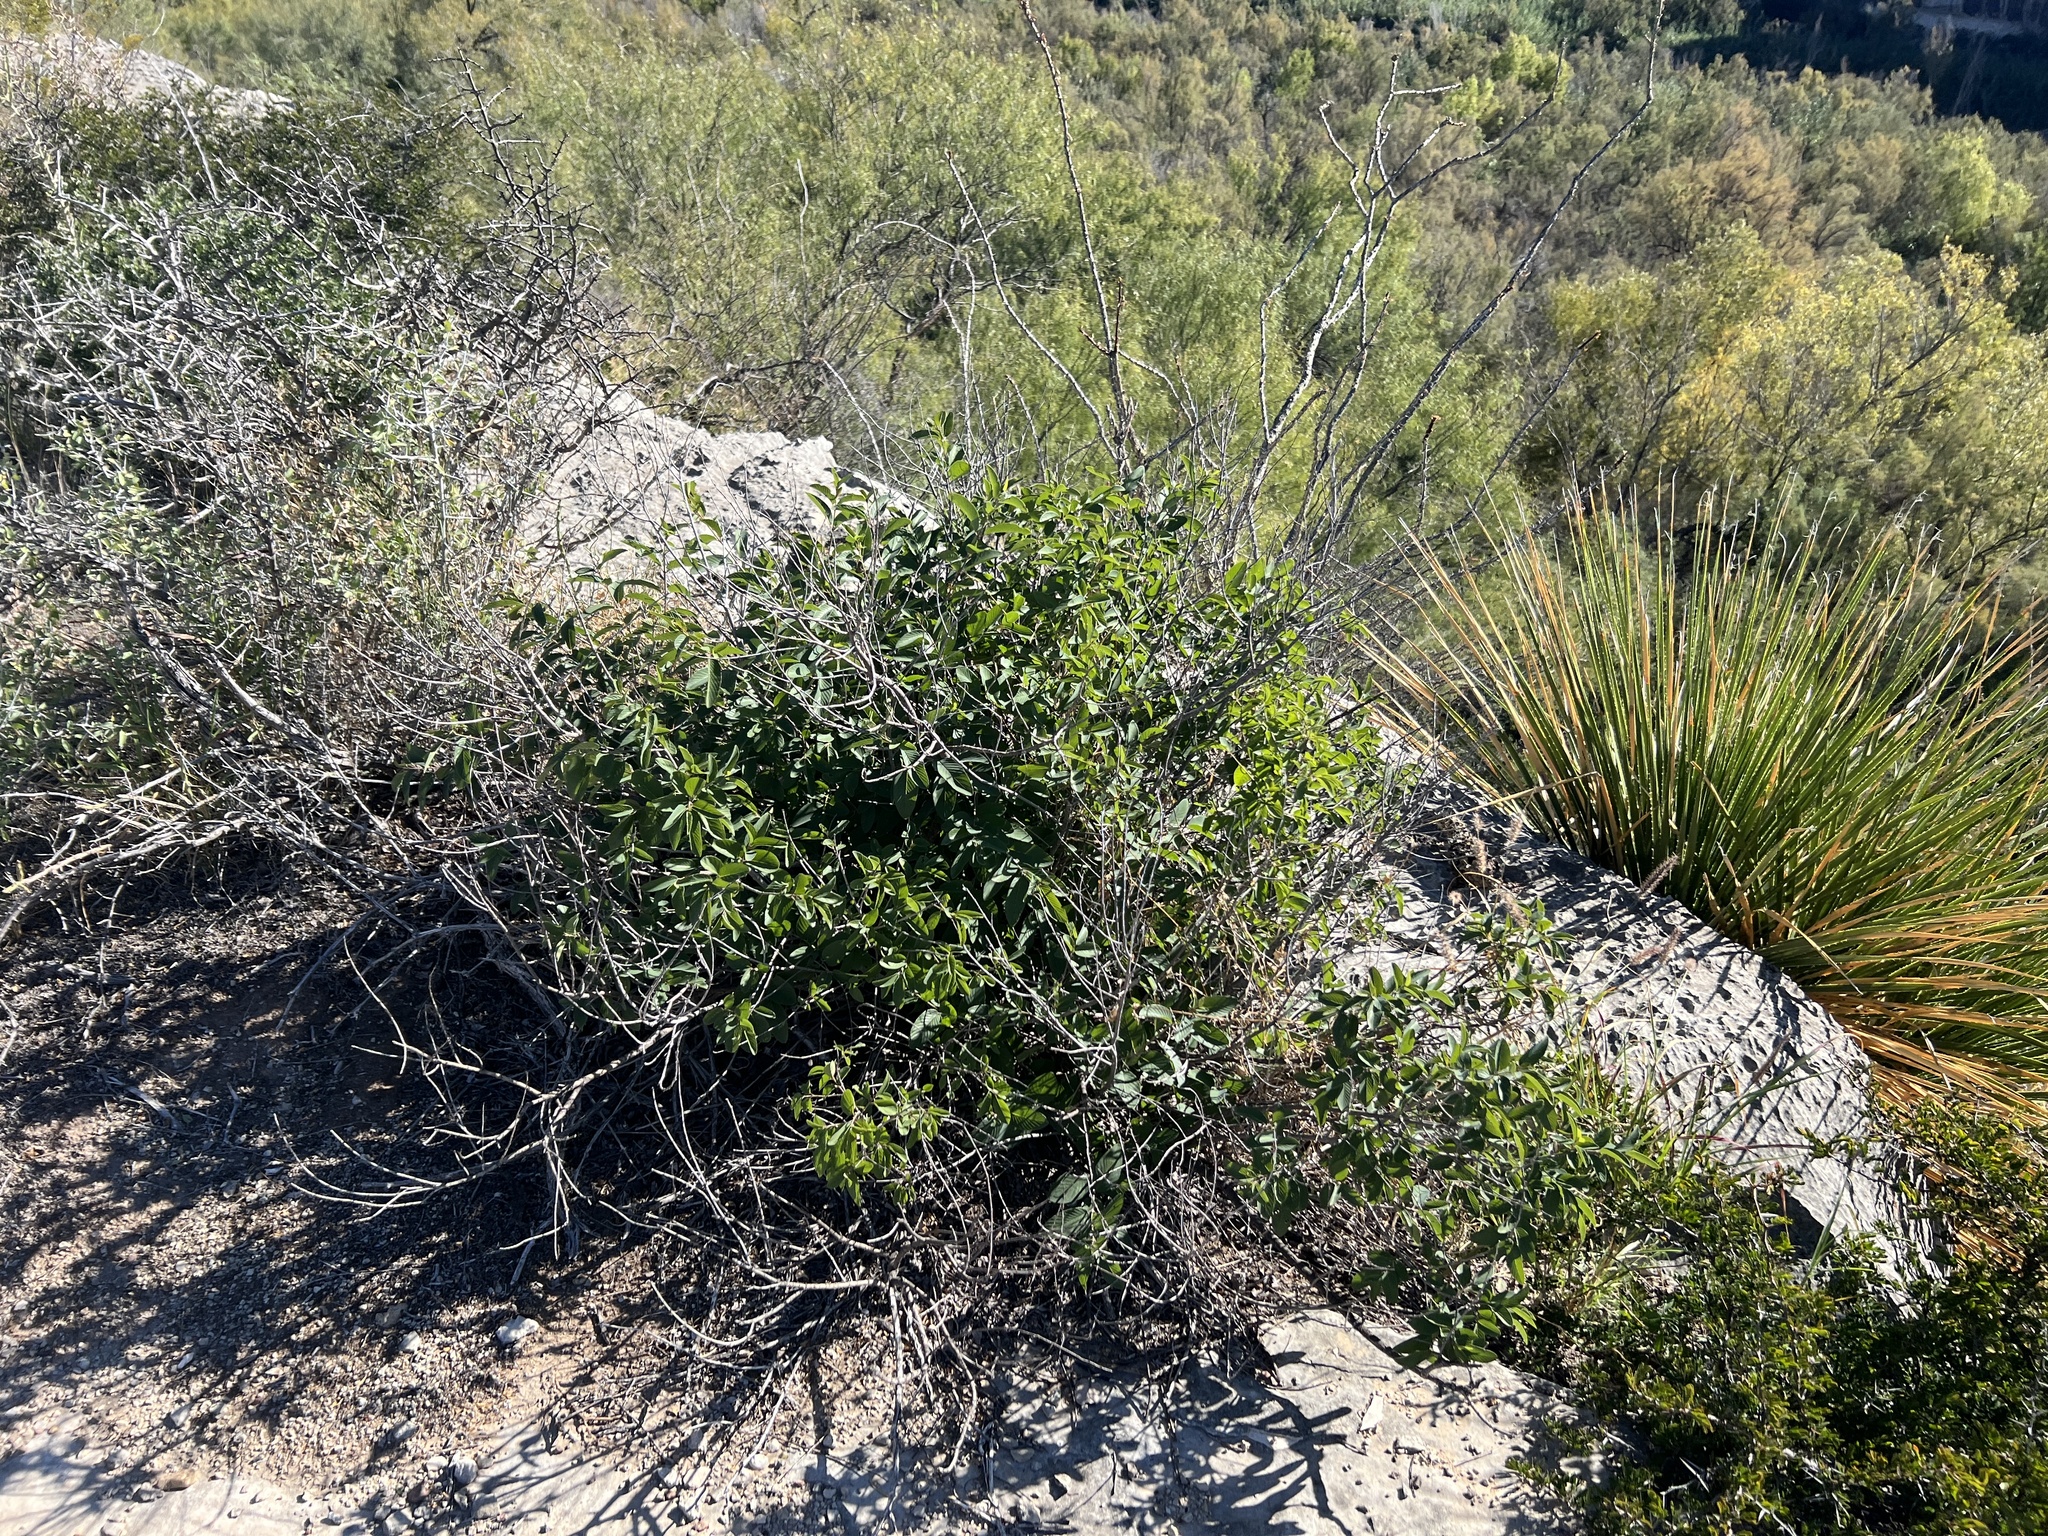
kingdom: Plantae
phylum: Tracheophyta
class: Magnoliopsida
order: Rosales
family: Rhamnaceae
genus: Karwinskia
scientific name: Karwinskia humboldtiana
